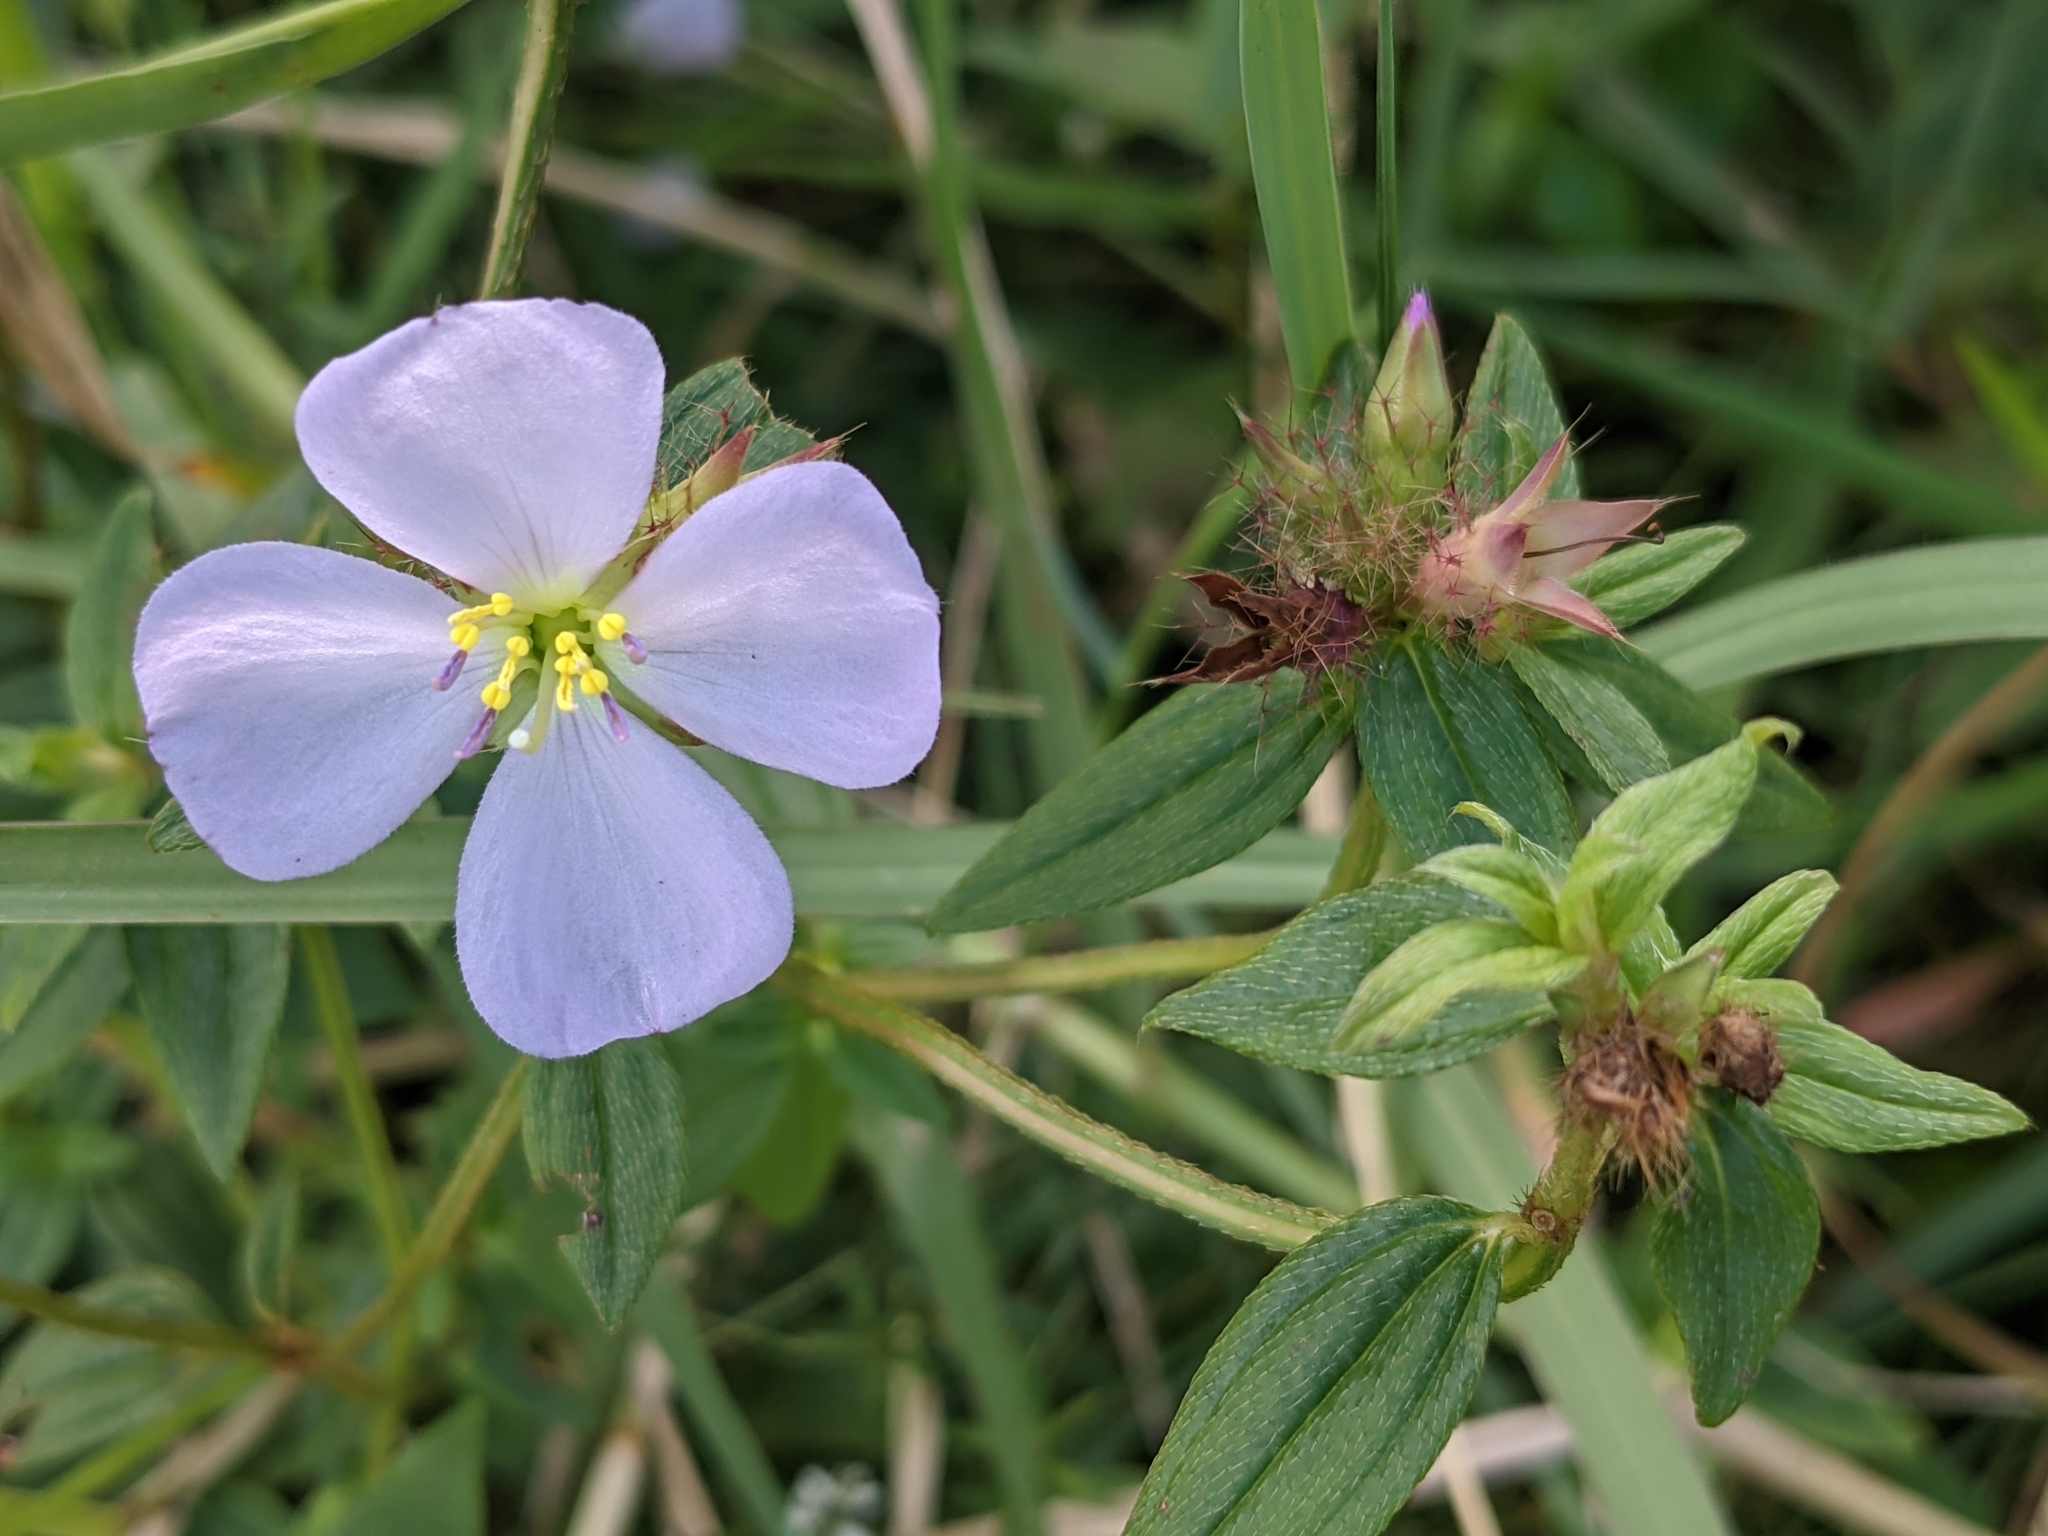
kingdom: Plantae
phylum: Tracheophyta
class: Magnoliopsida
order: Myrtales
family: Melastomataceae
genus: Pterolepis
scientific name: Pterolepis glomerata
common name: False meadowbeauty
